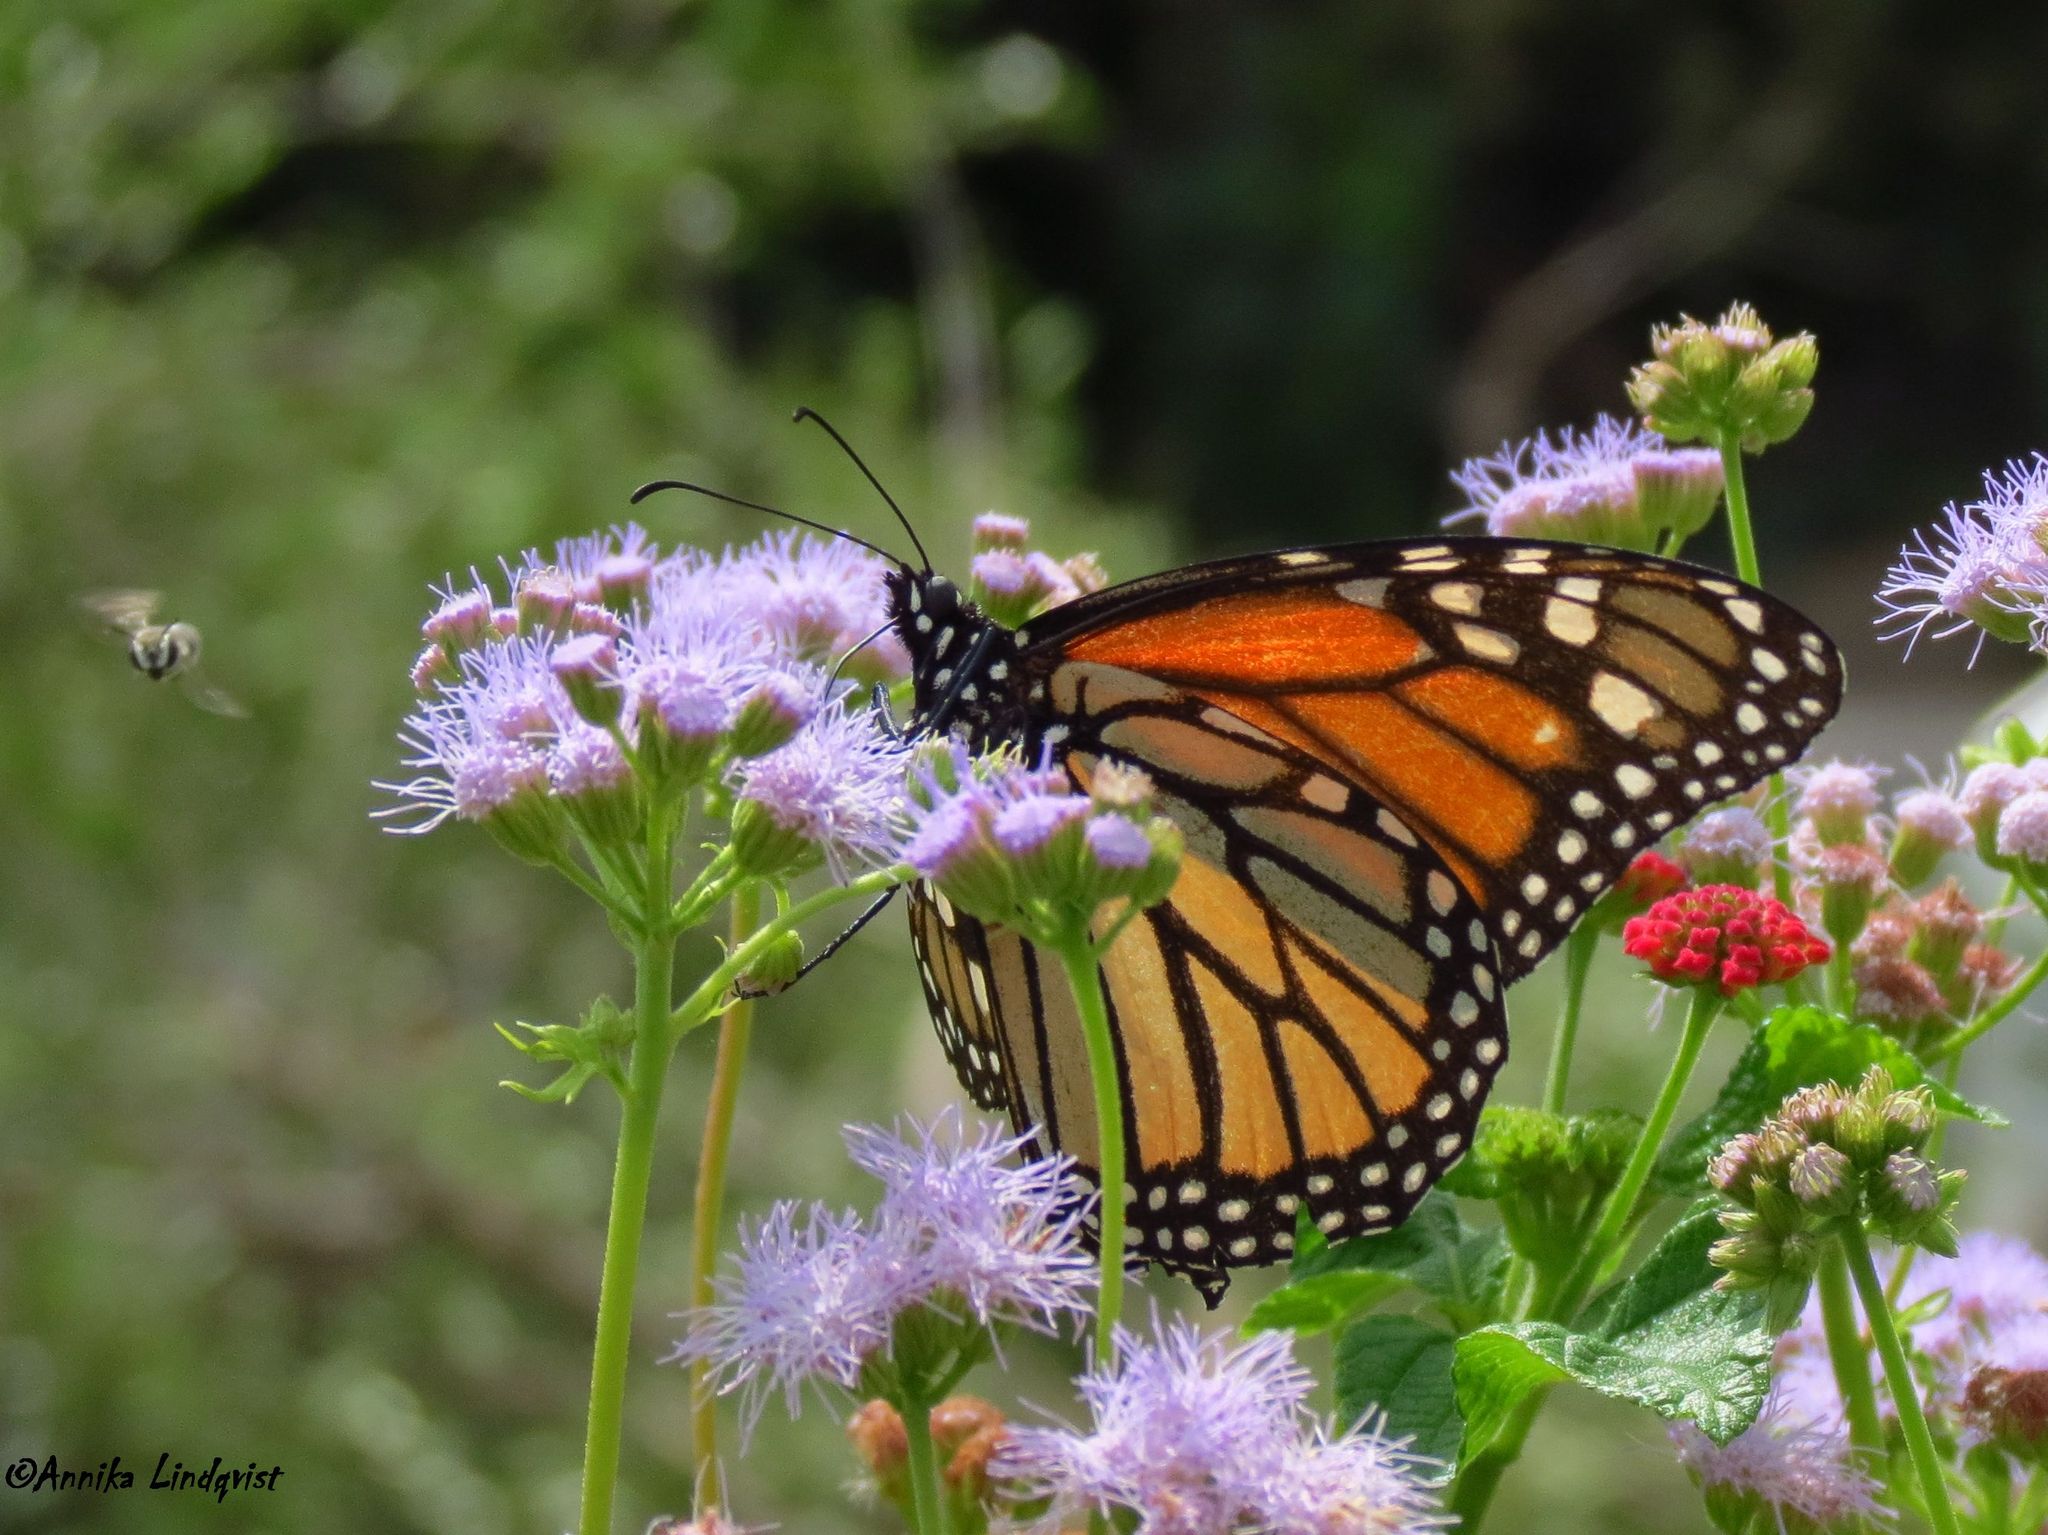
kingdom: Animalia
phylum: Arthropoda
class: Insecta
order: Lepidoptera
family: Nymphalidae
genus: Danaus
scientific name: Danaus plexippus
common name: Monarch
